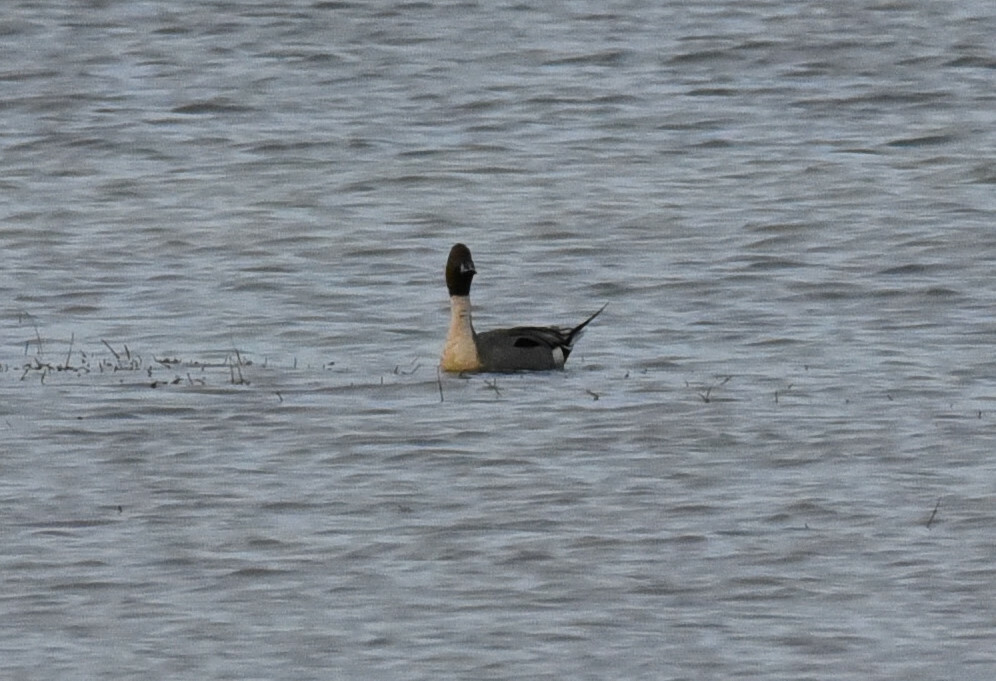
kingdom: Animalia
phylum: Chordata
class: Aves
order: Anseriformes
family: Anatidae
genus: Anas
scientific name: Anas acuta
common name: Northern pintail
